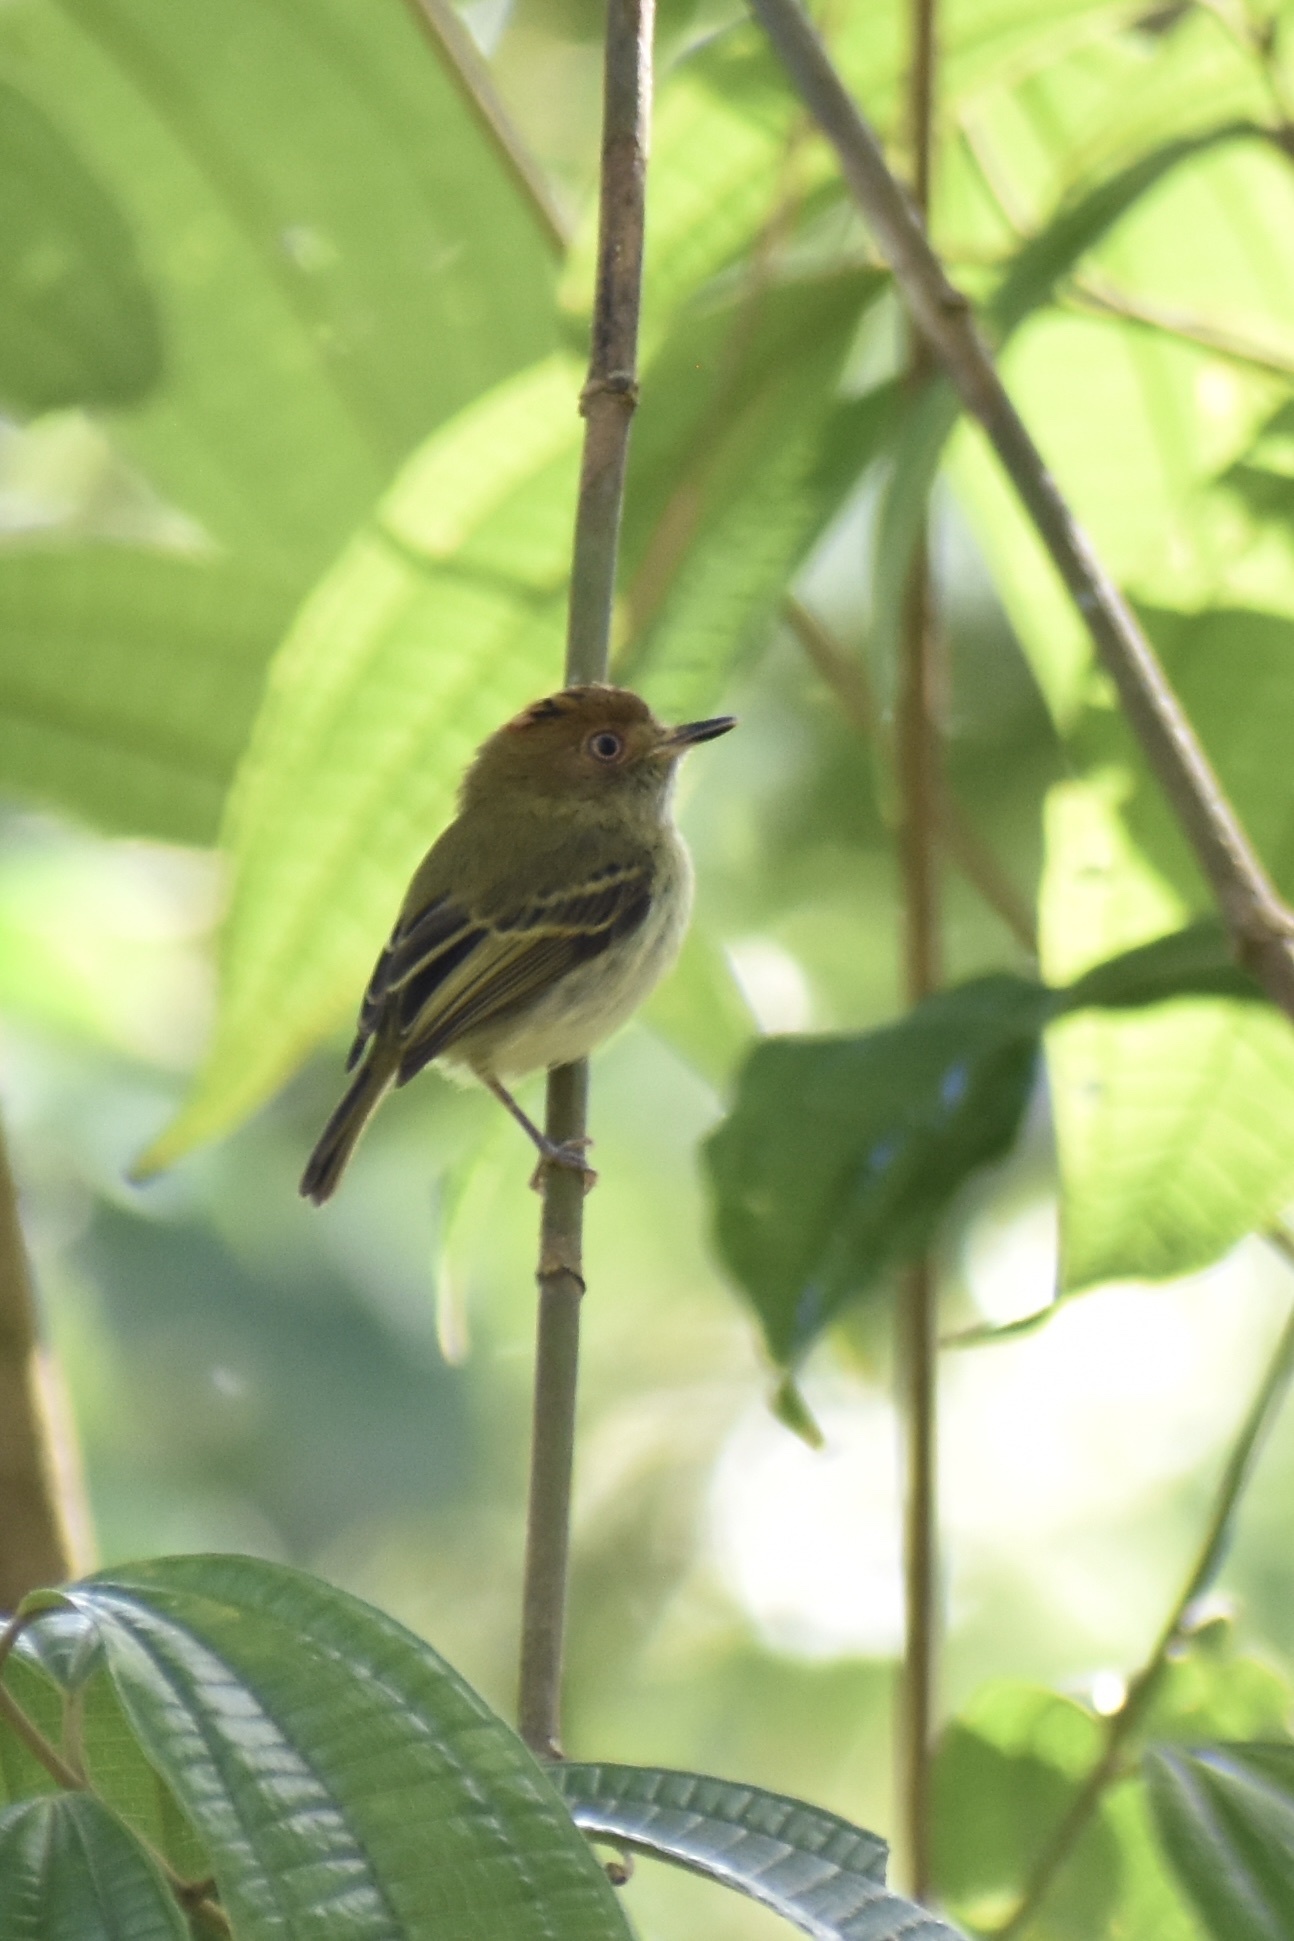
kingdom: Animalia
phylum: Chordata
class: Aves
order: Passeriformes
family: Tyrannidae
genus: Lophotriccus
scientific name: Lophotriccus pileatus
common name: Scale-crested pygmy-tyrant
